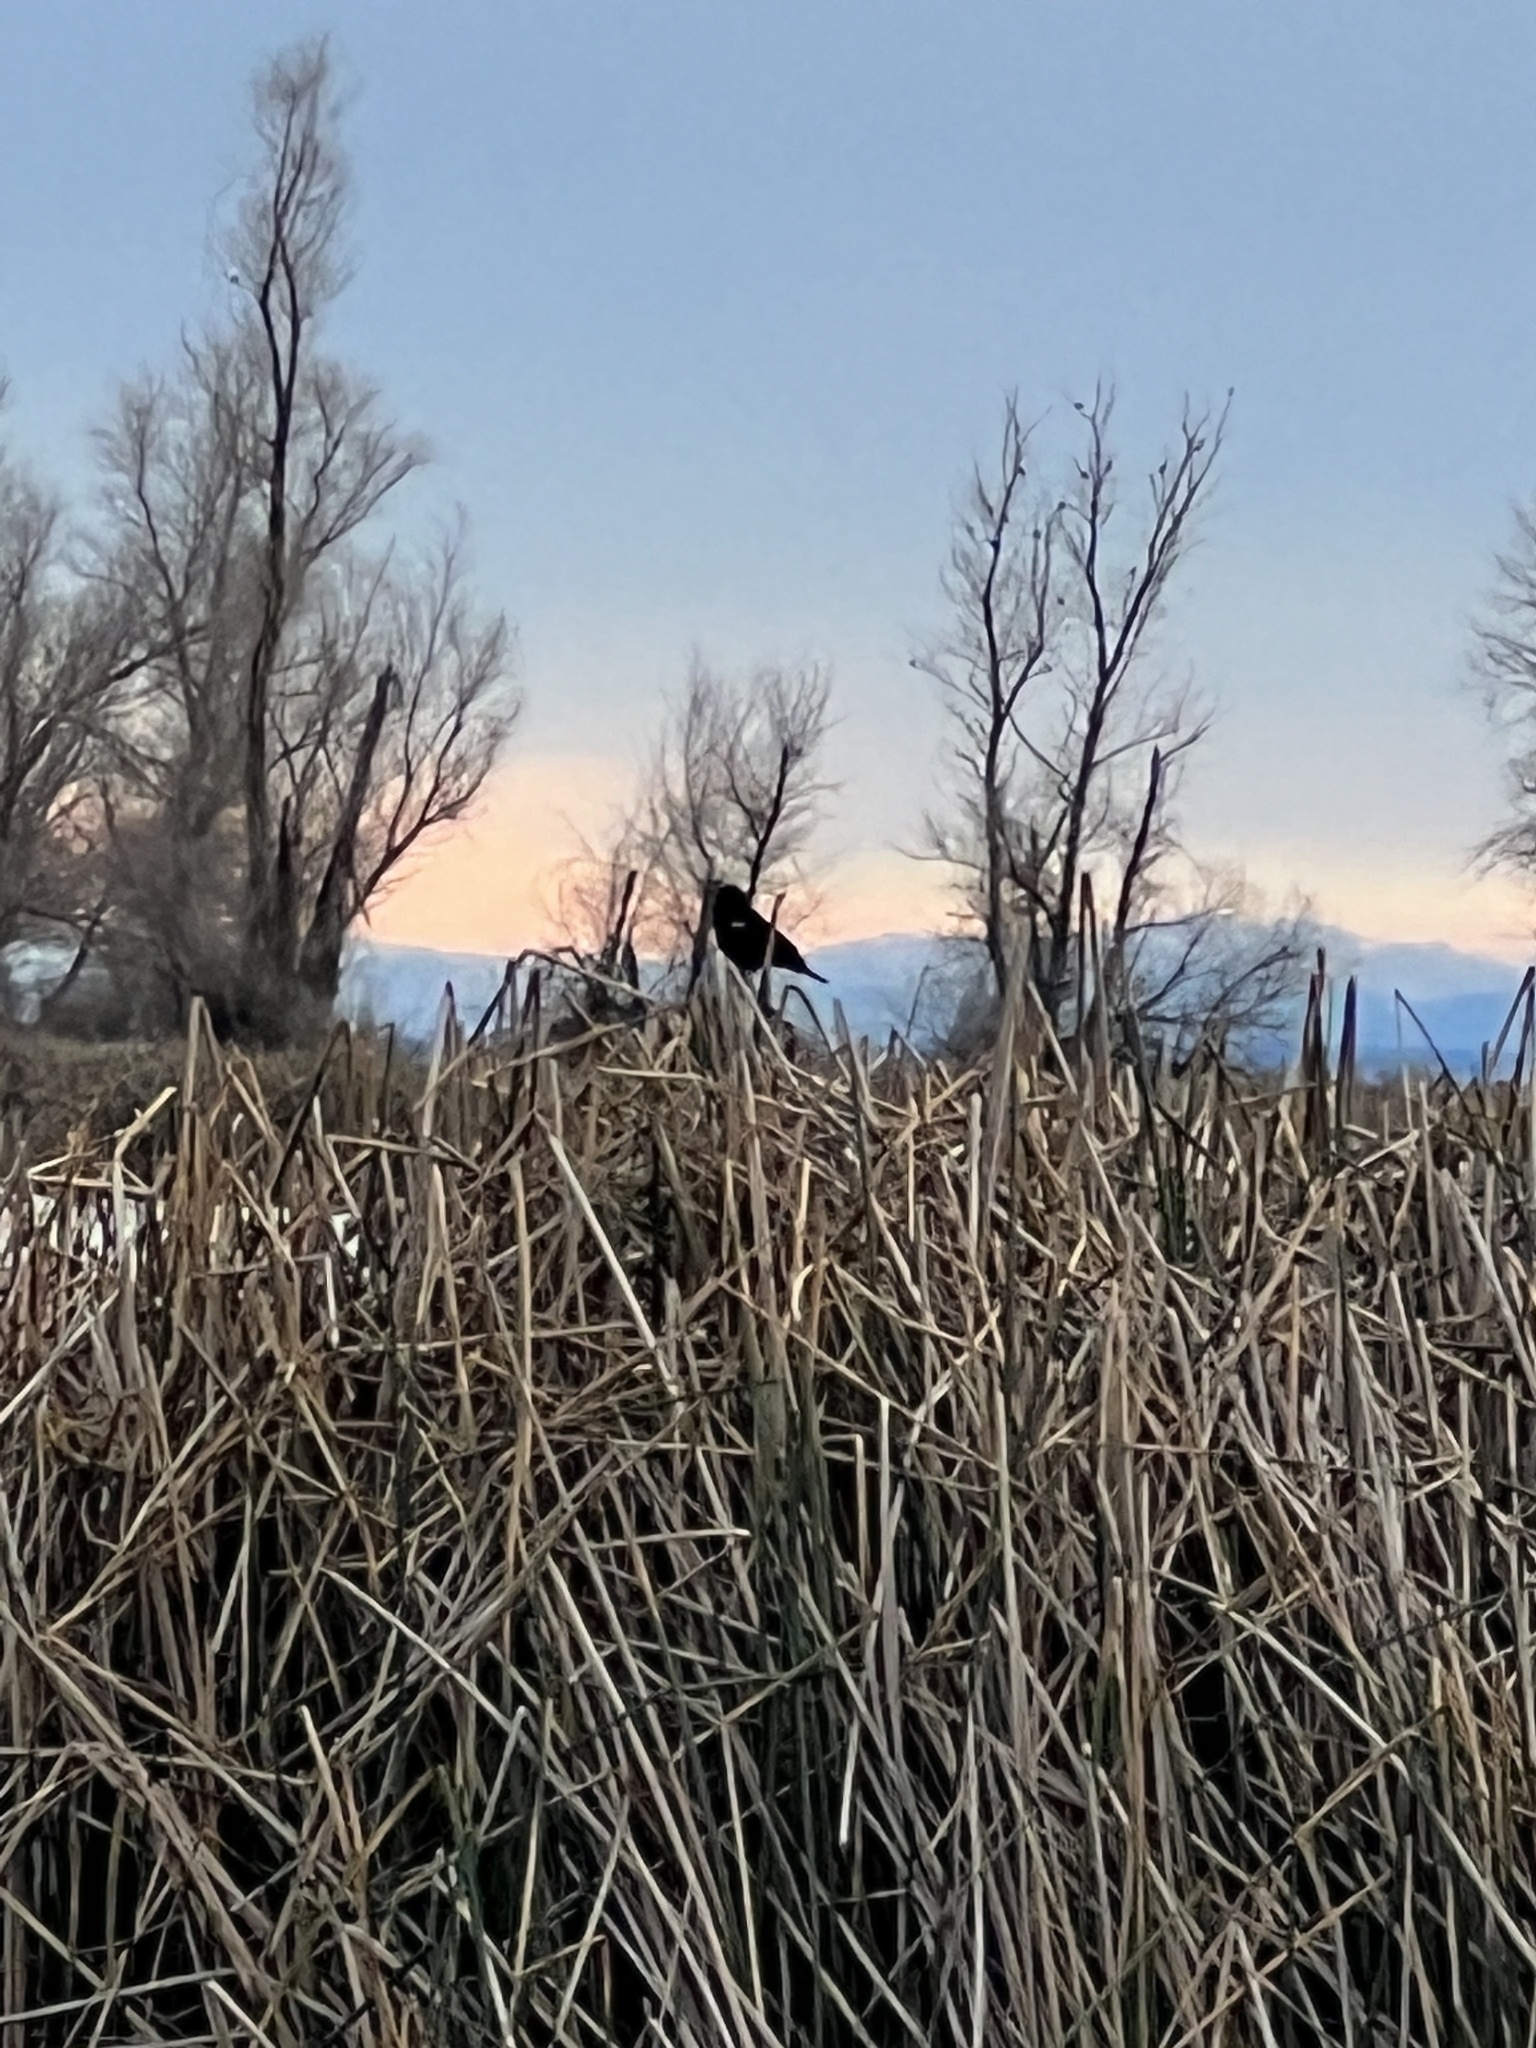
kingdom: Animalia
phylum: Chordata
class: Aves
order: Passeriformes
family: Icteridae
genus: Agelaius
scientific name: Agelaius phoeniceus
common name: Red-winged blackbird
